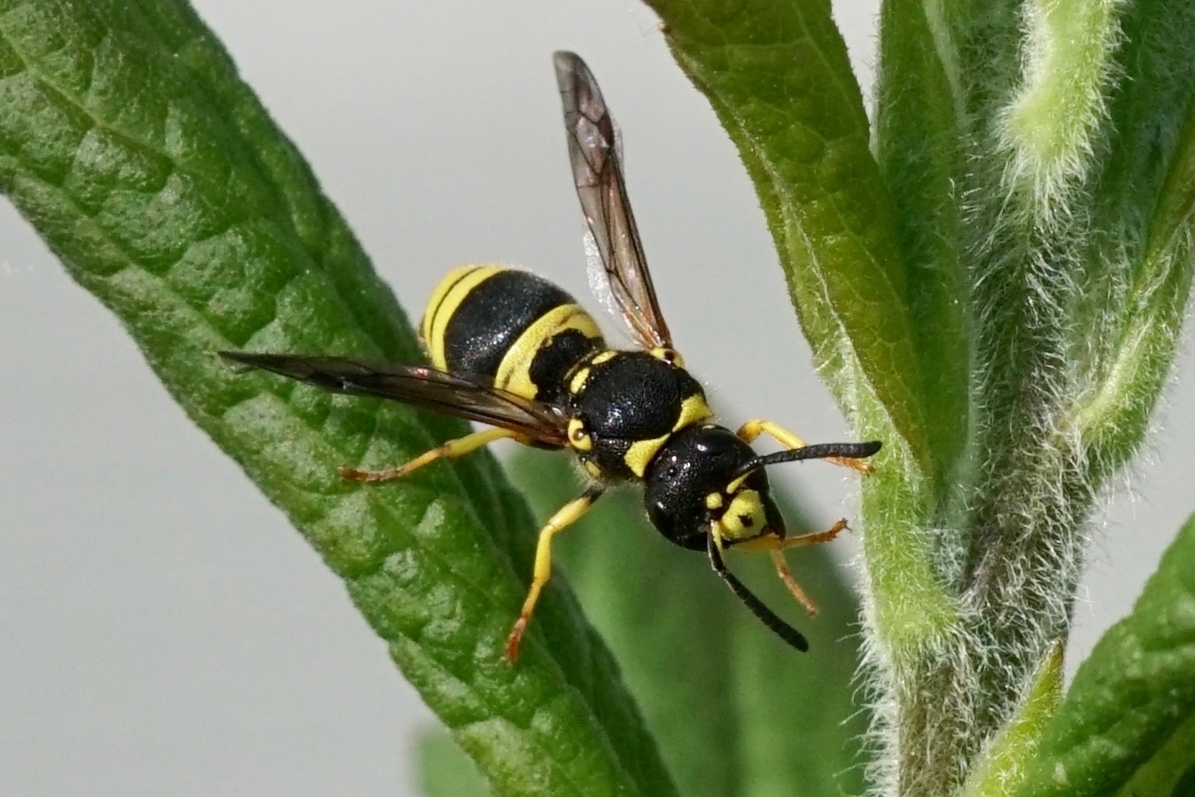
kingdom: Animalia
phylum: Arthropoda
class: Insecta
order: Hymenoptera
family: Vespidae
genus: Ancistrocerus
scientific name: Ancistrocerus gazella
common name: European tube wasp
